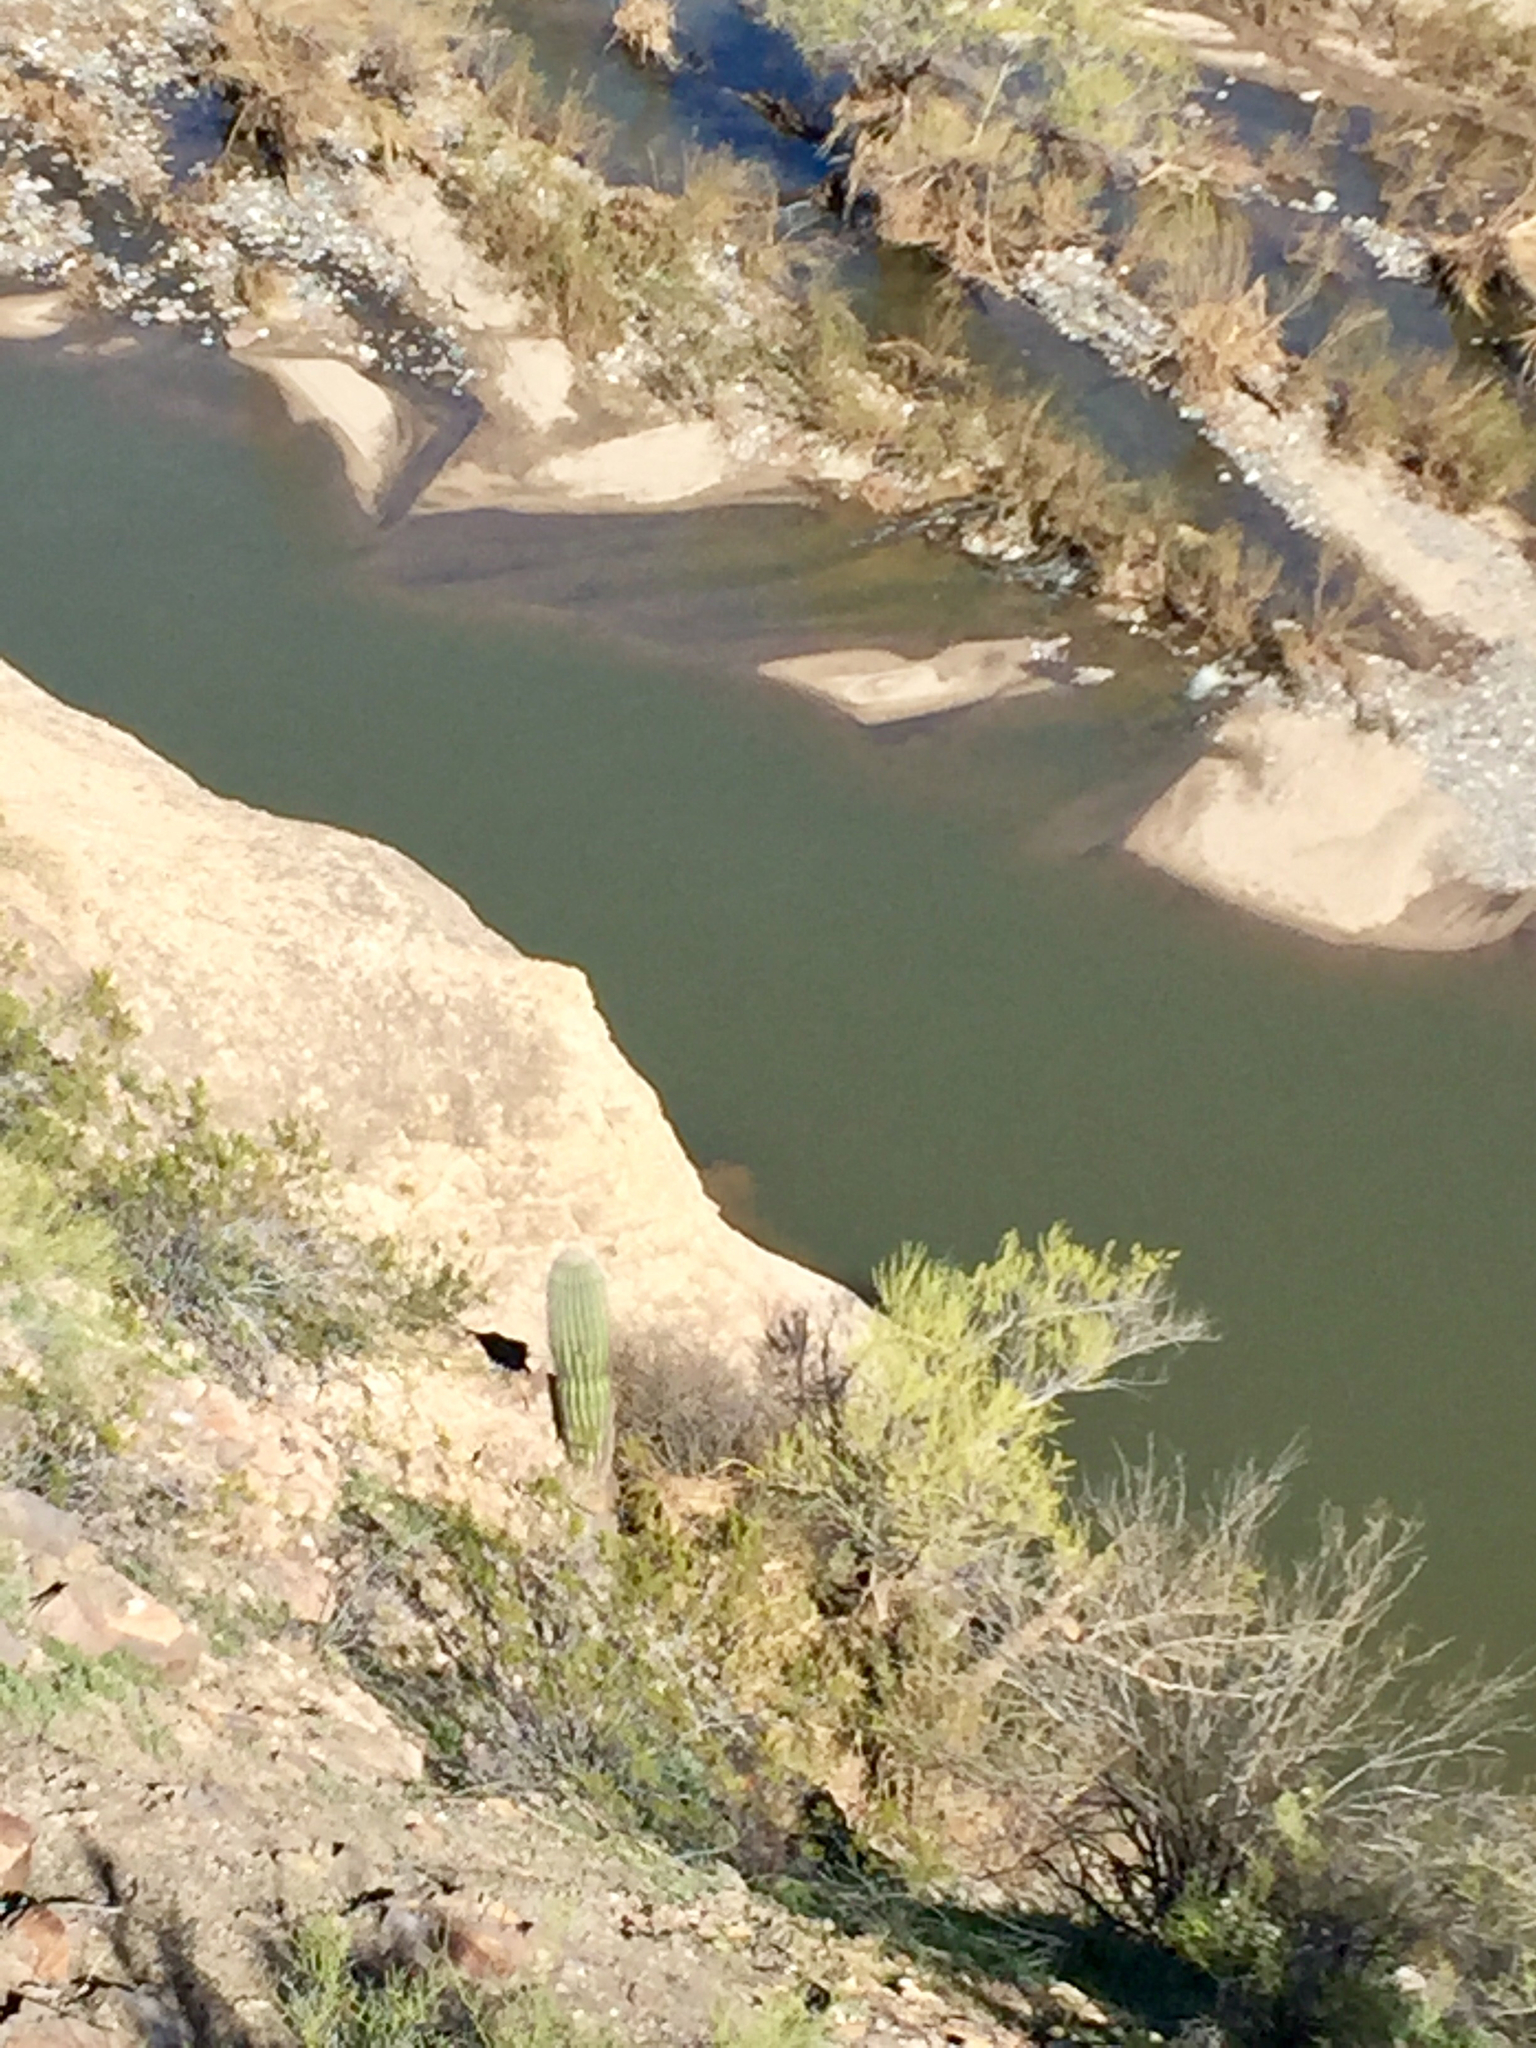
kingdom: Plantae
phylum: Tracheophyta
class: Magnoliopsida
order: Caryophyllales
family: Cactaceae
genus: Carnegiea
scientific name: Carnegiea gigantea
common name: Saguaro
